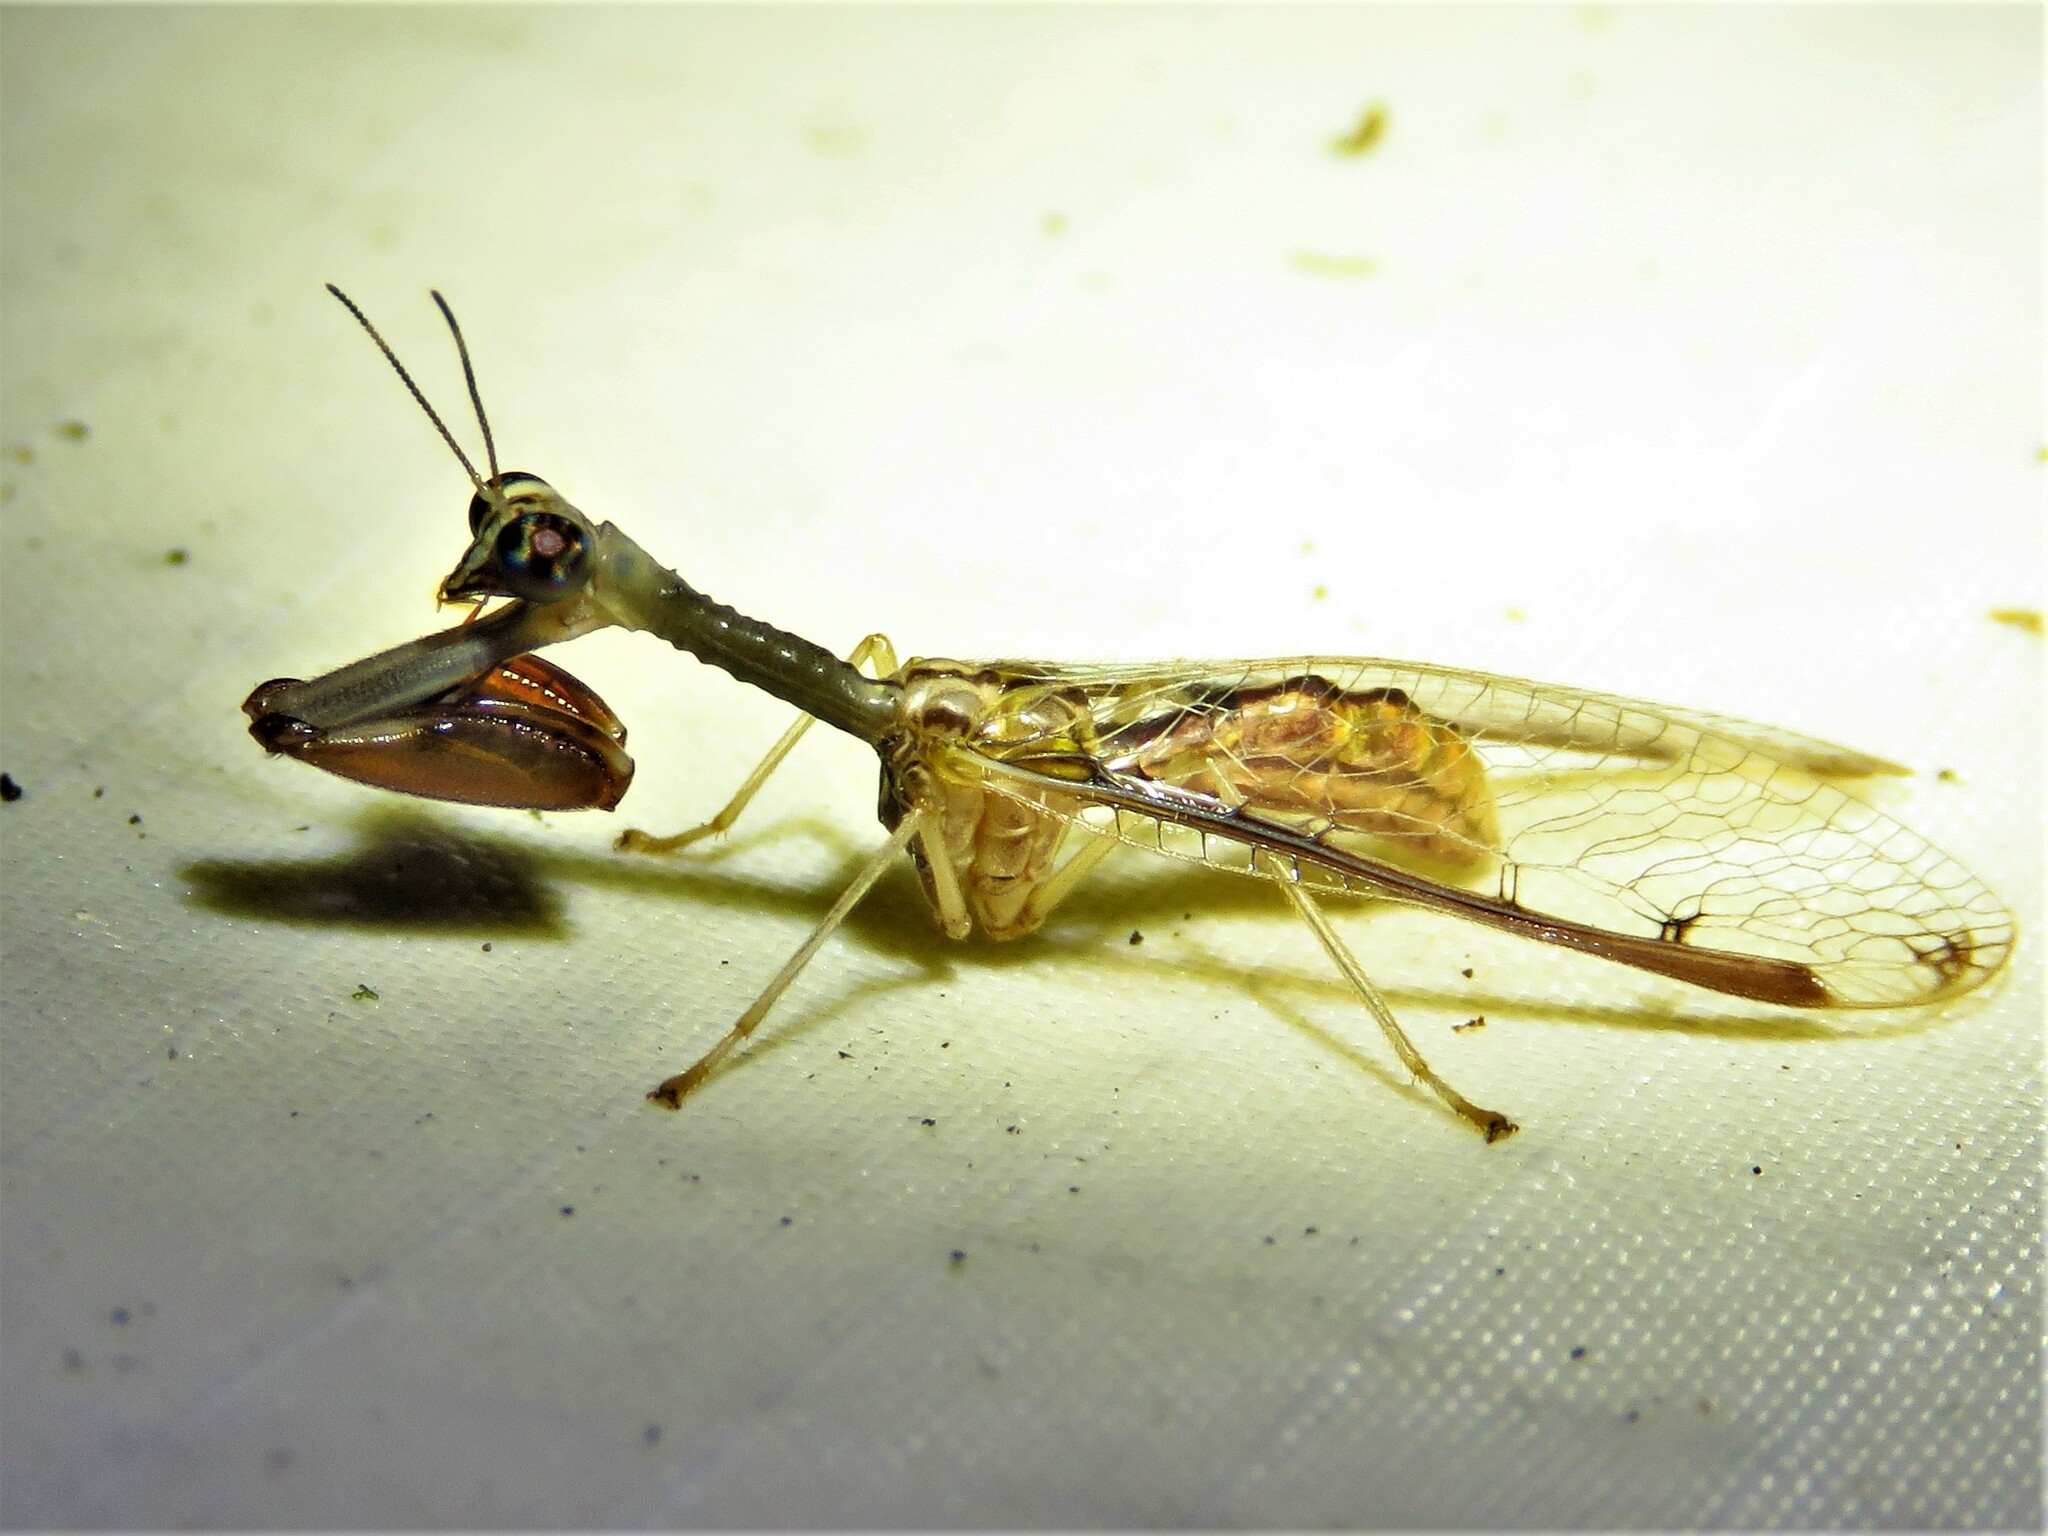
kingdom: Animalia
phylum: Arthropoda
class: Insecta
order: Neuroptera
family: Mantispidae
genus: Dicromantispa
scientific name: Dicromantispa interrupta
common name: Four-spotted mantidfly
